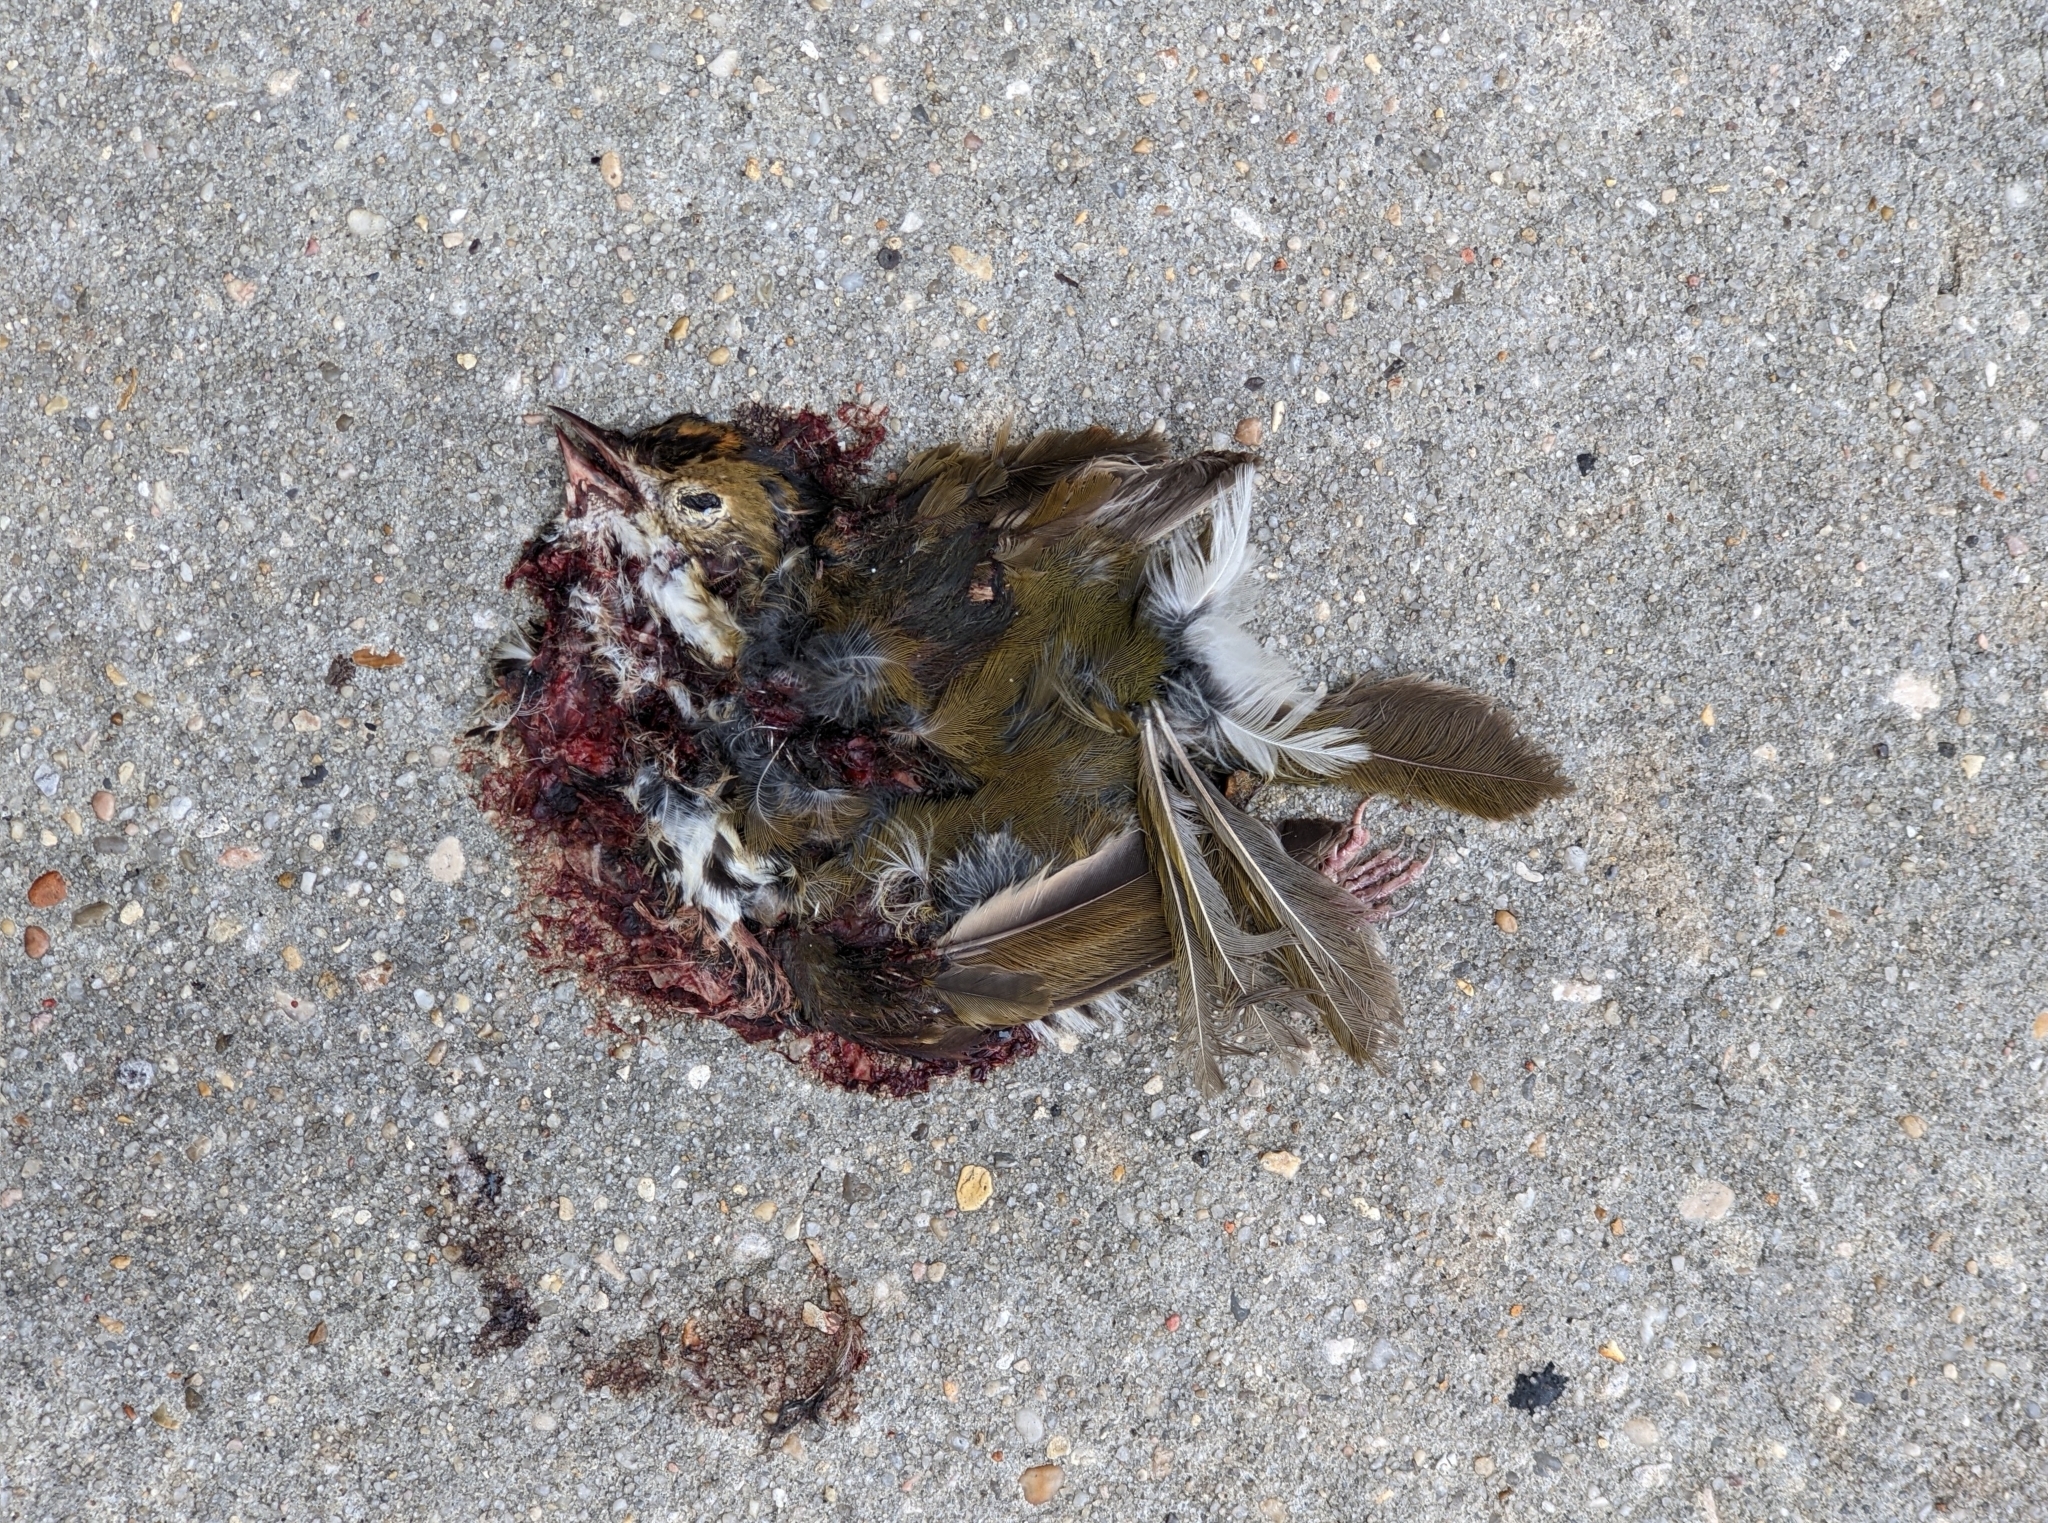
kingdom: Animalia
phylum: Chordata
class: Aves
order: Passeriformes
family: Parulidae
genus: Seiurus
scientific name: Seiurus aurocapilla
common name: Ovenbird
